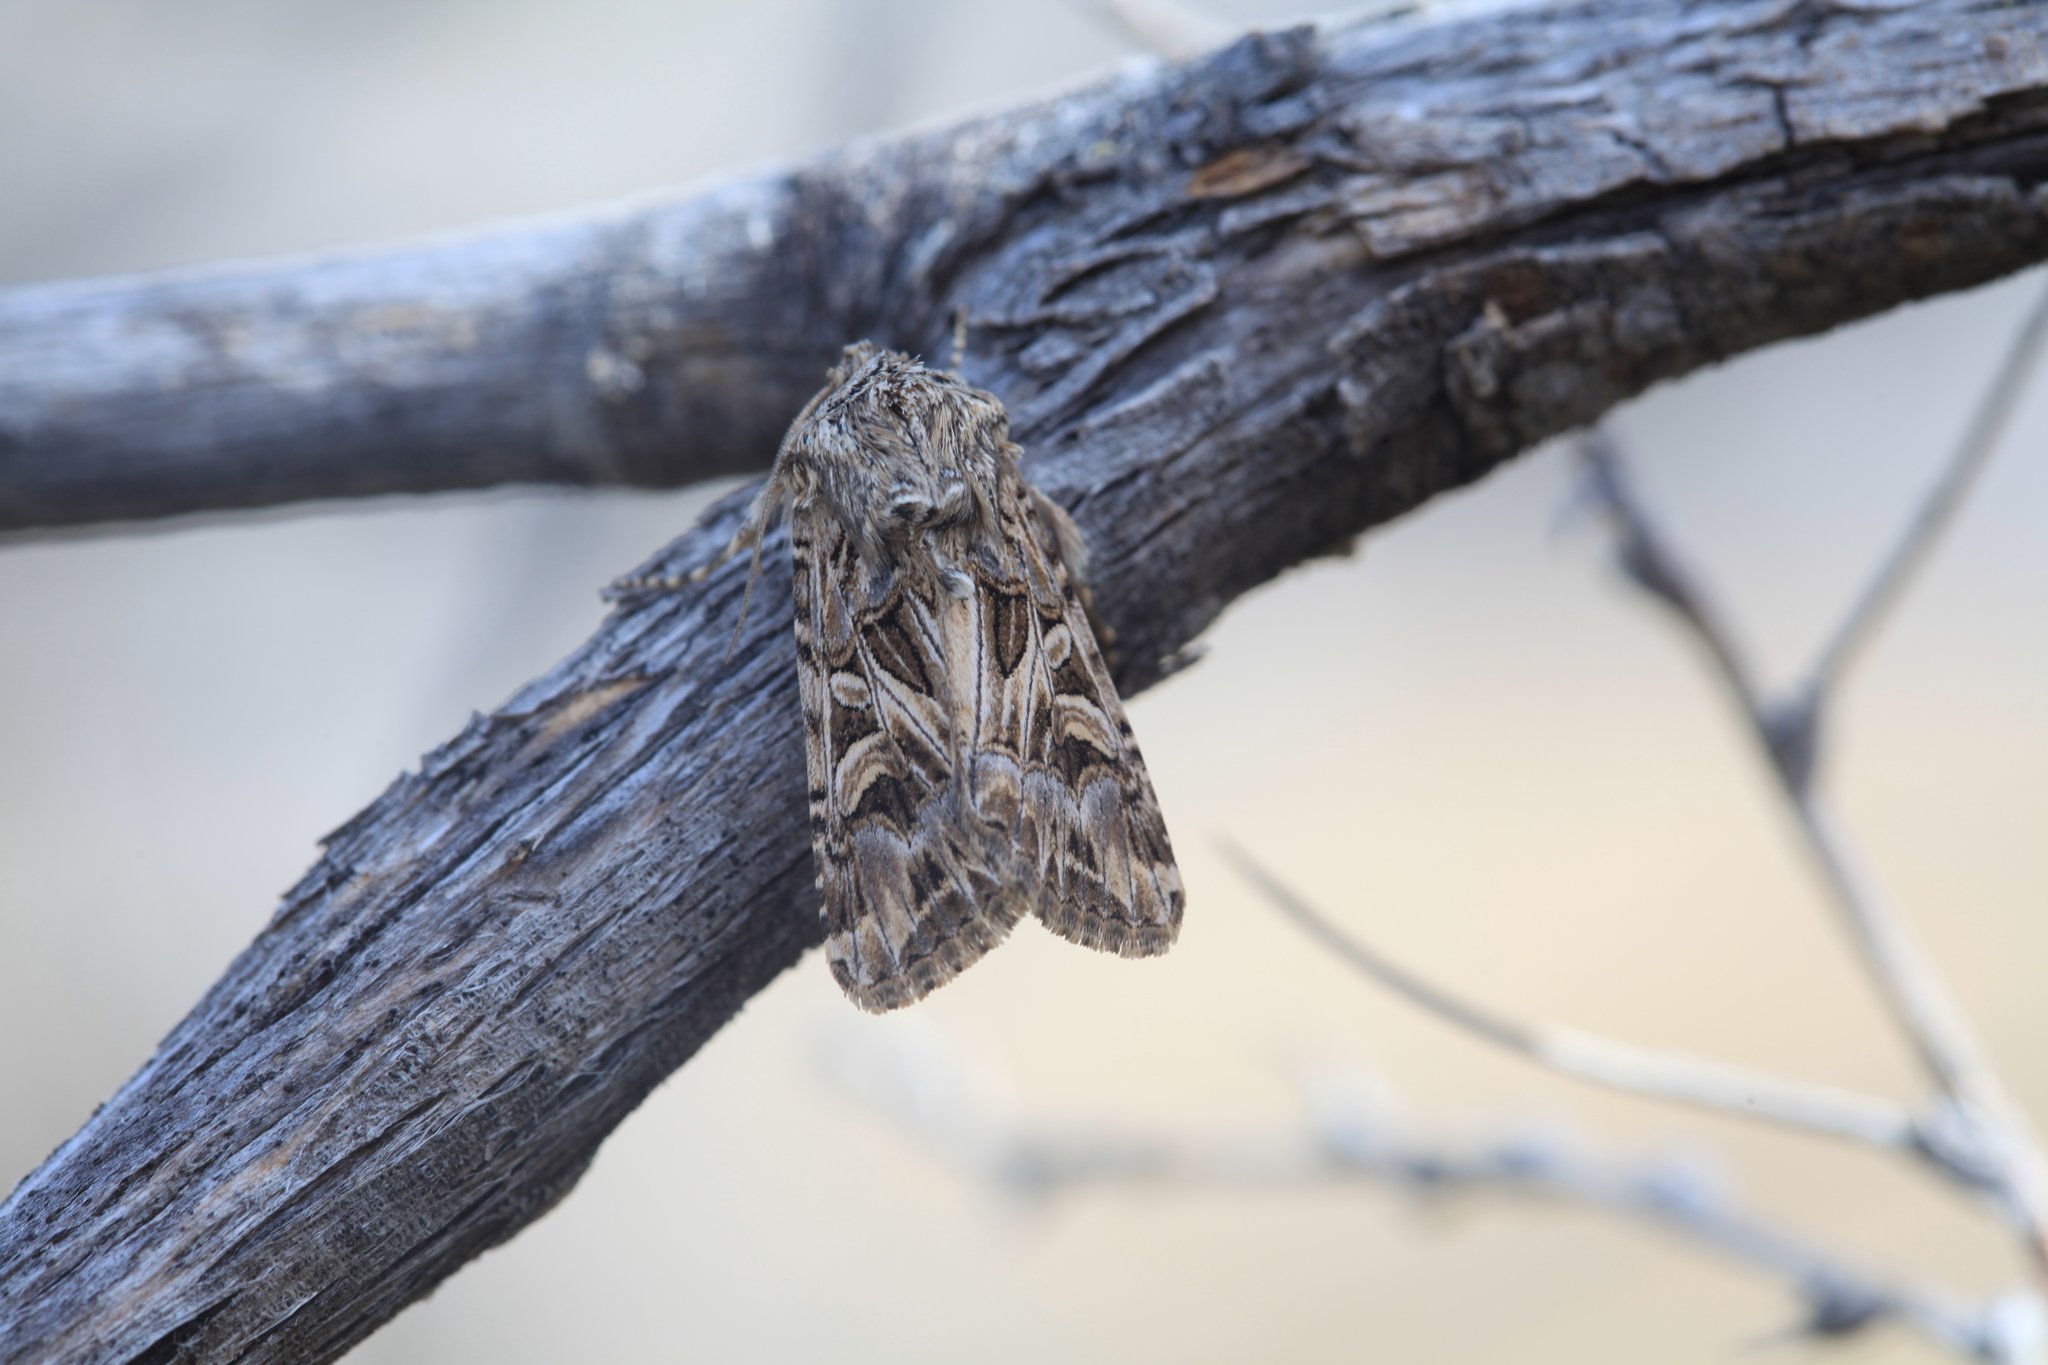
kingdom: Animalia
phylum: Arthropoda
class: Insecta
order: Lepidoptera
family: Noctuidae
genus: Anarta
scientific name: Anarta dianthi
